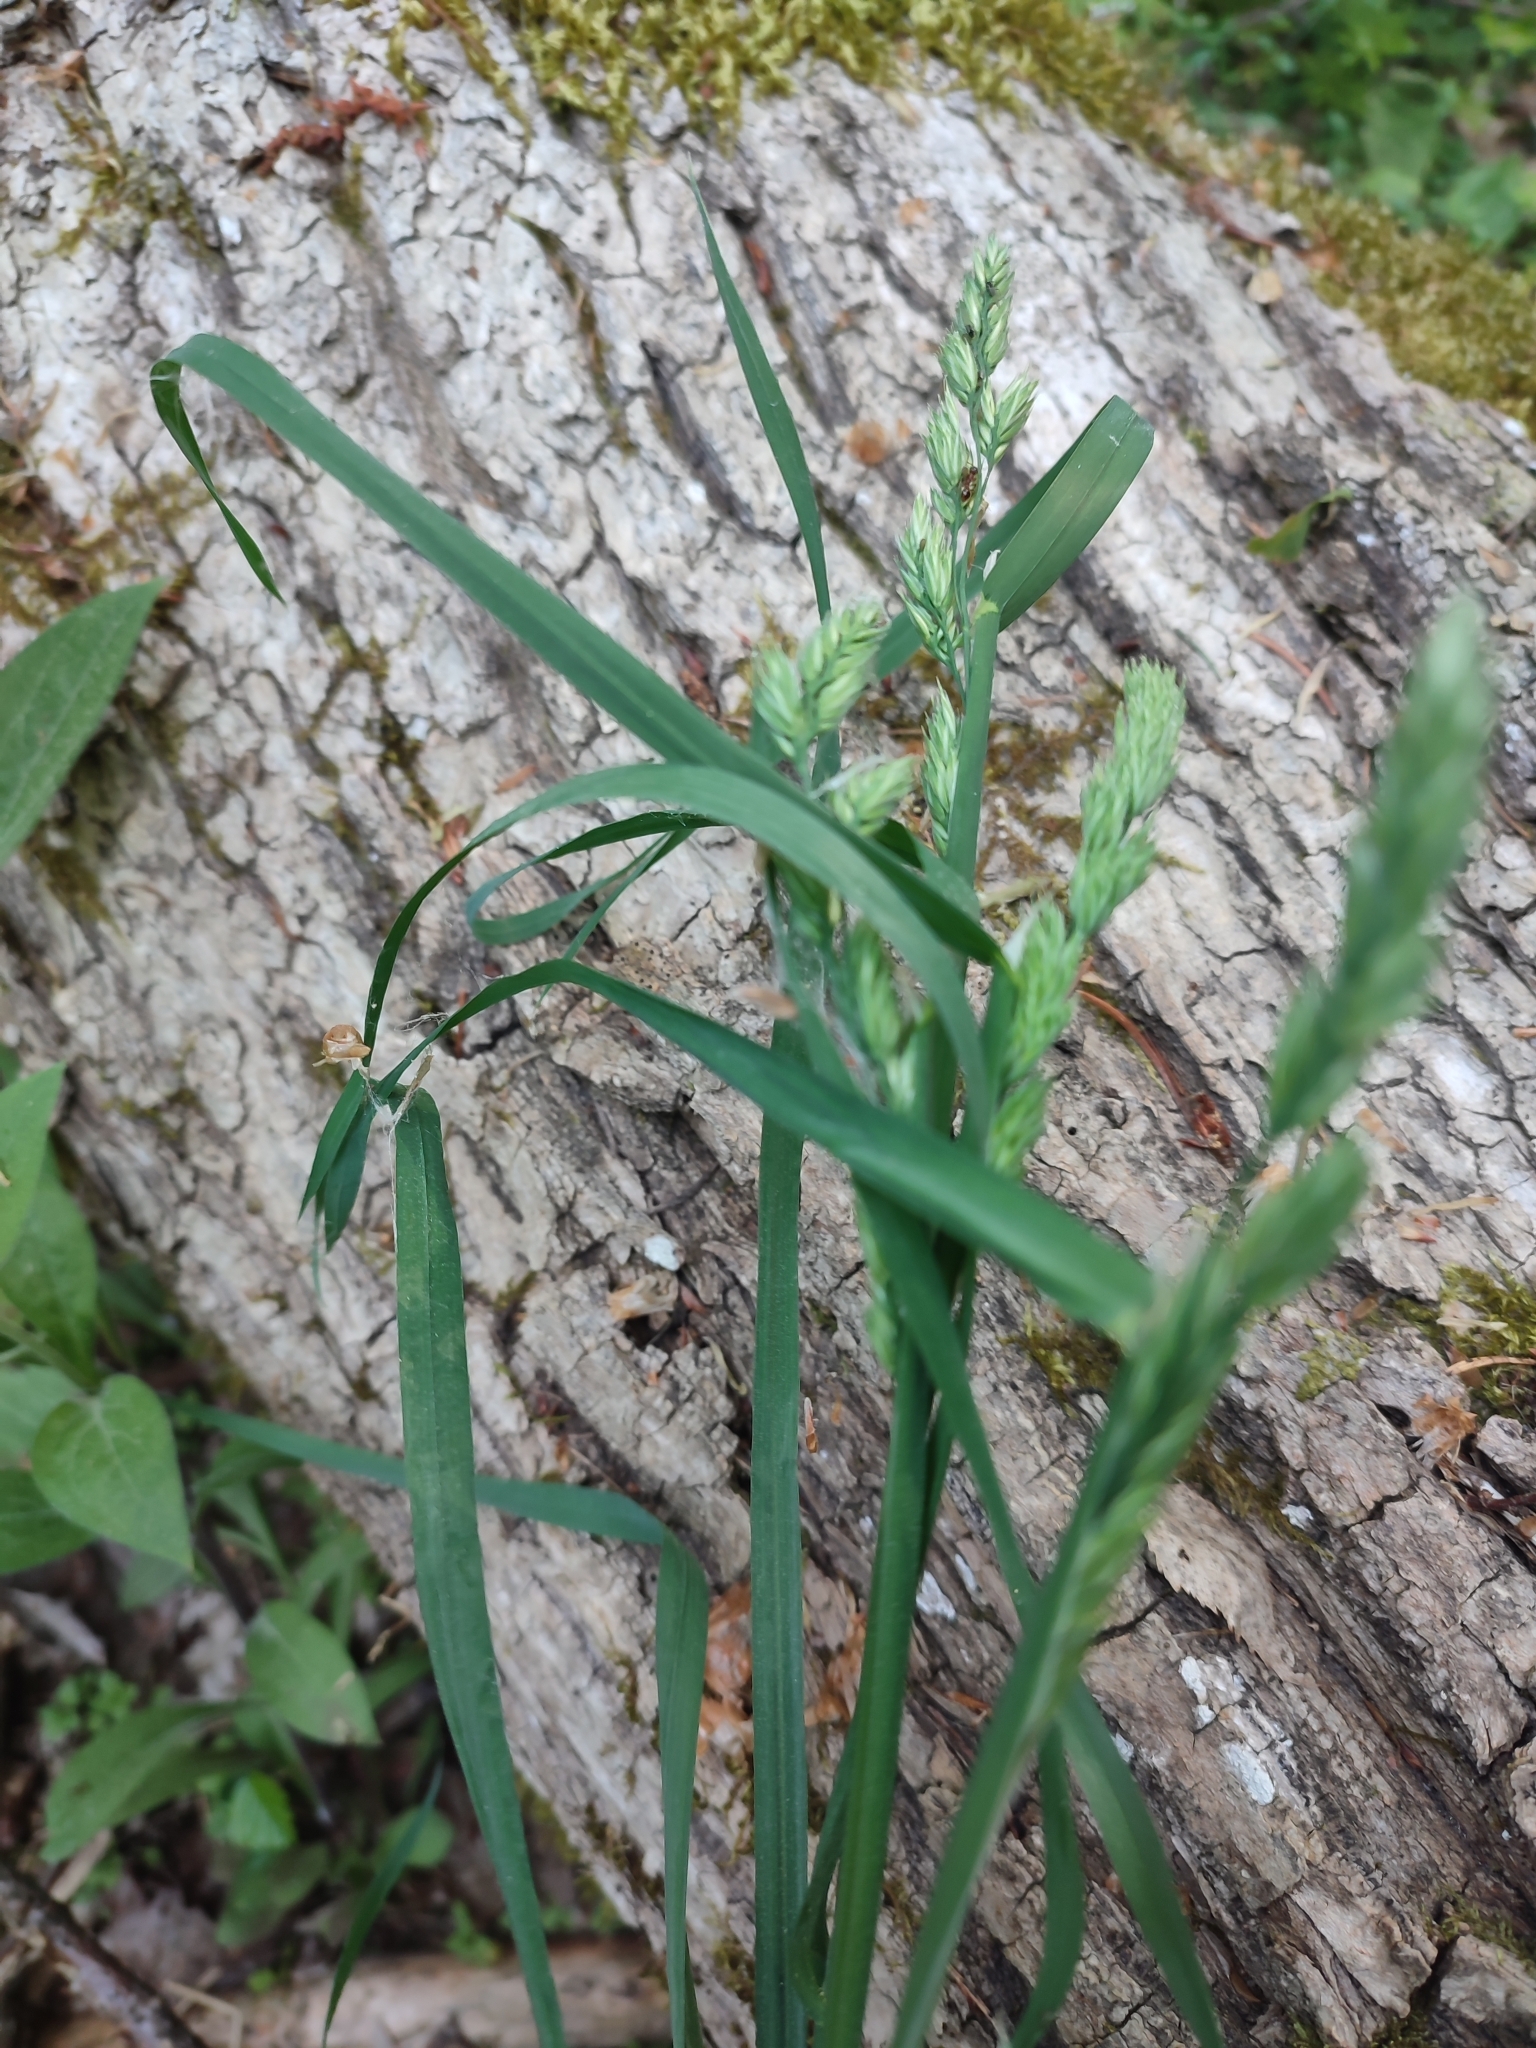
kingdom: Plantae
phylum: Tracheophyta
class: Liliopsida
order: Poales
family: Poaceae
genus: Dactylis
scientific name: Dactylis glomerata
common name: Orchardgrass
